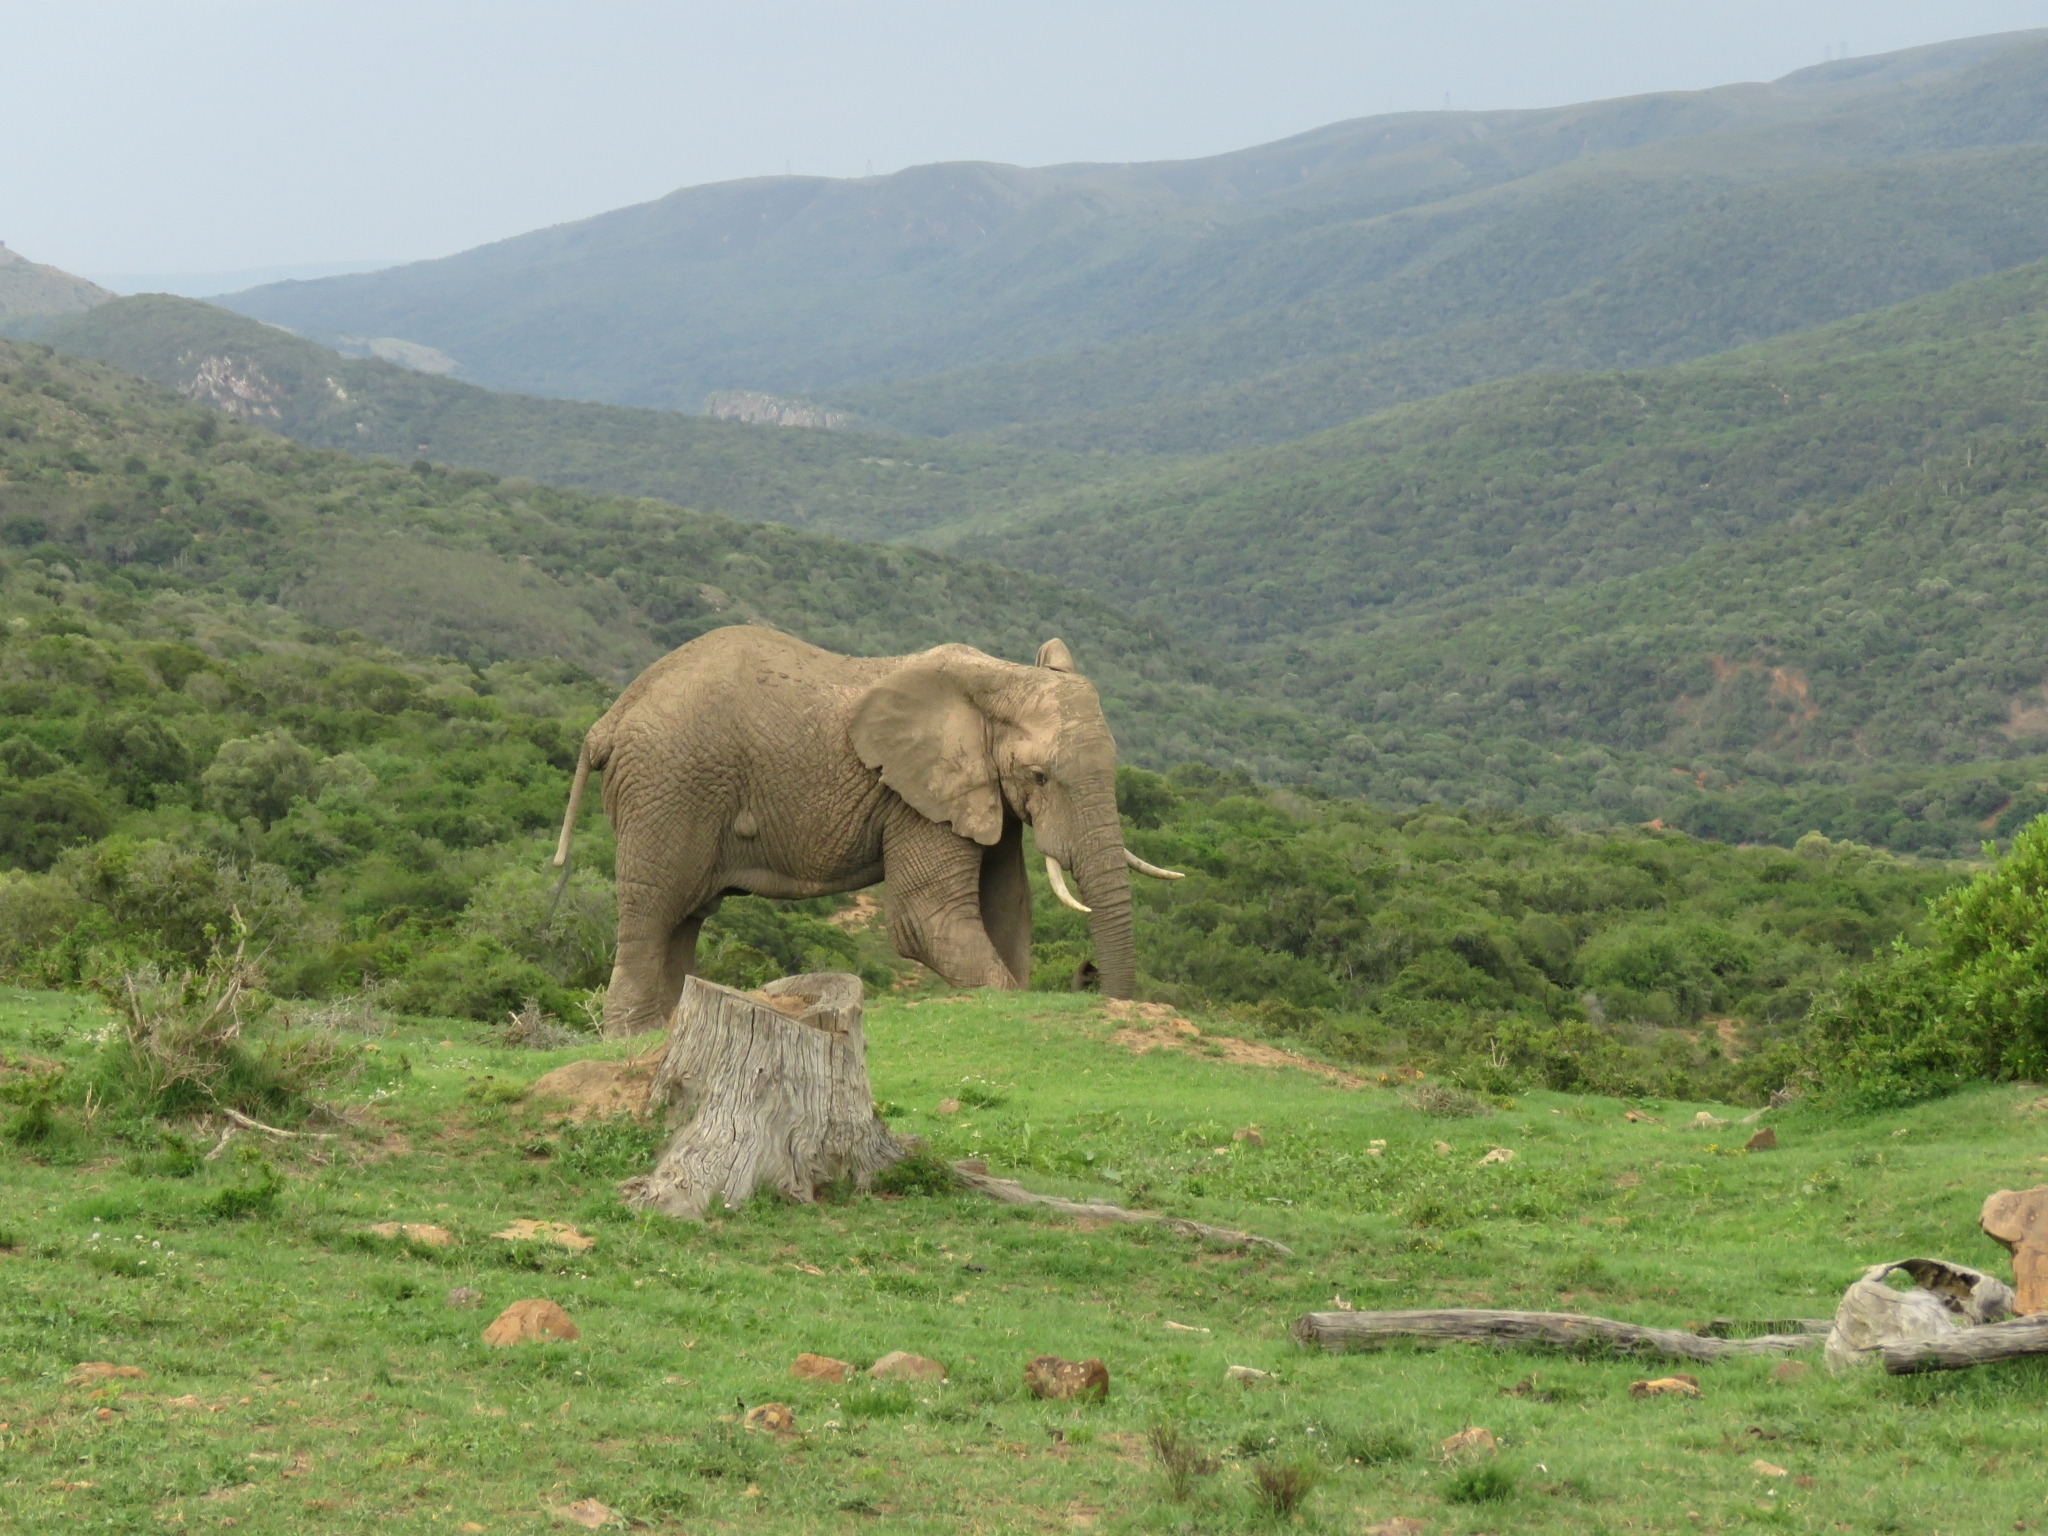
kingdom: Animalia
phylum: Chordata
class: Mammalia
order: Proboscidea
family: Elephantidae
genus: Loxodonta
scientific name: Loxodonta africana
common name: African elephant
